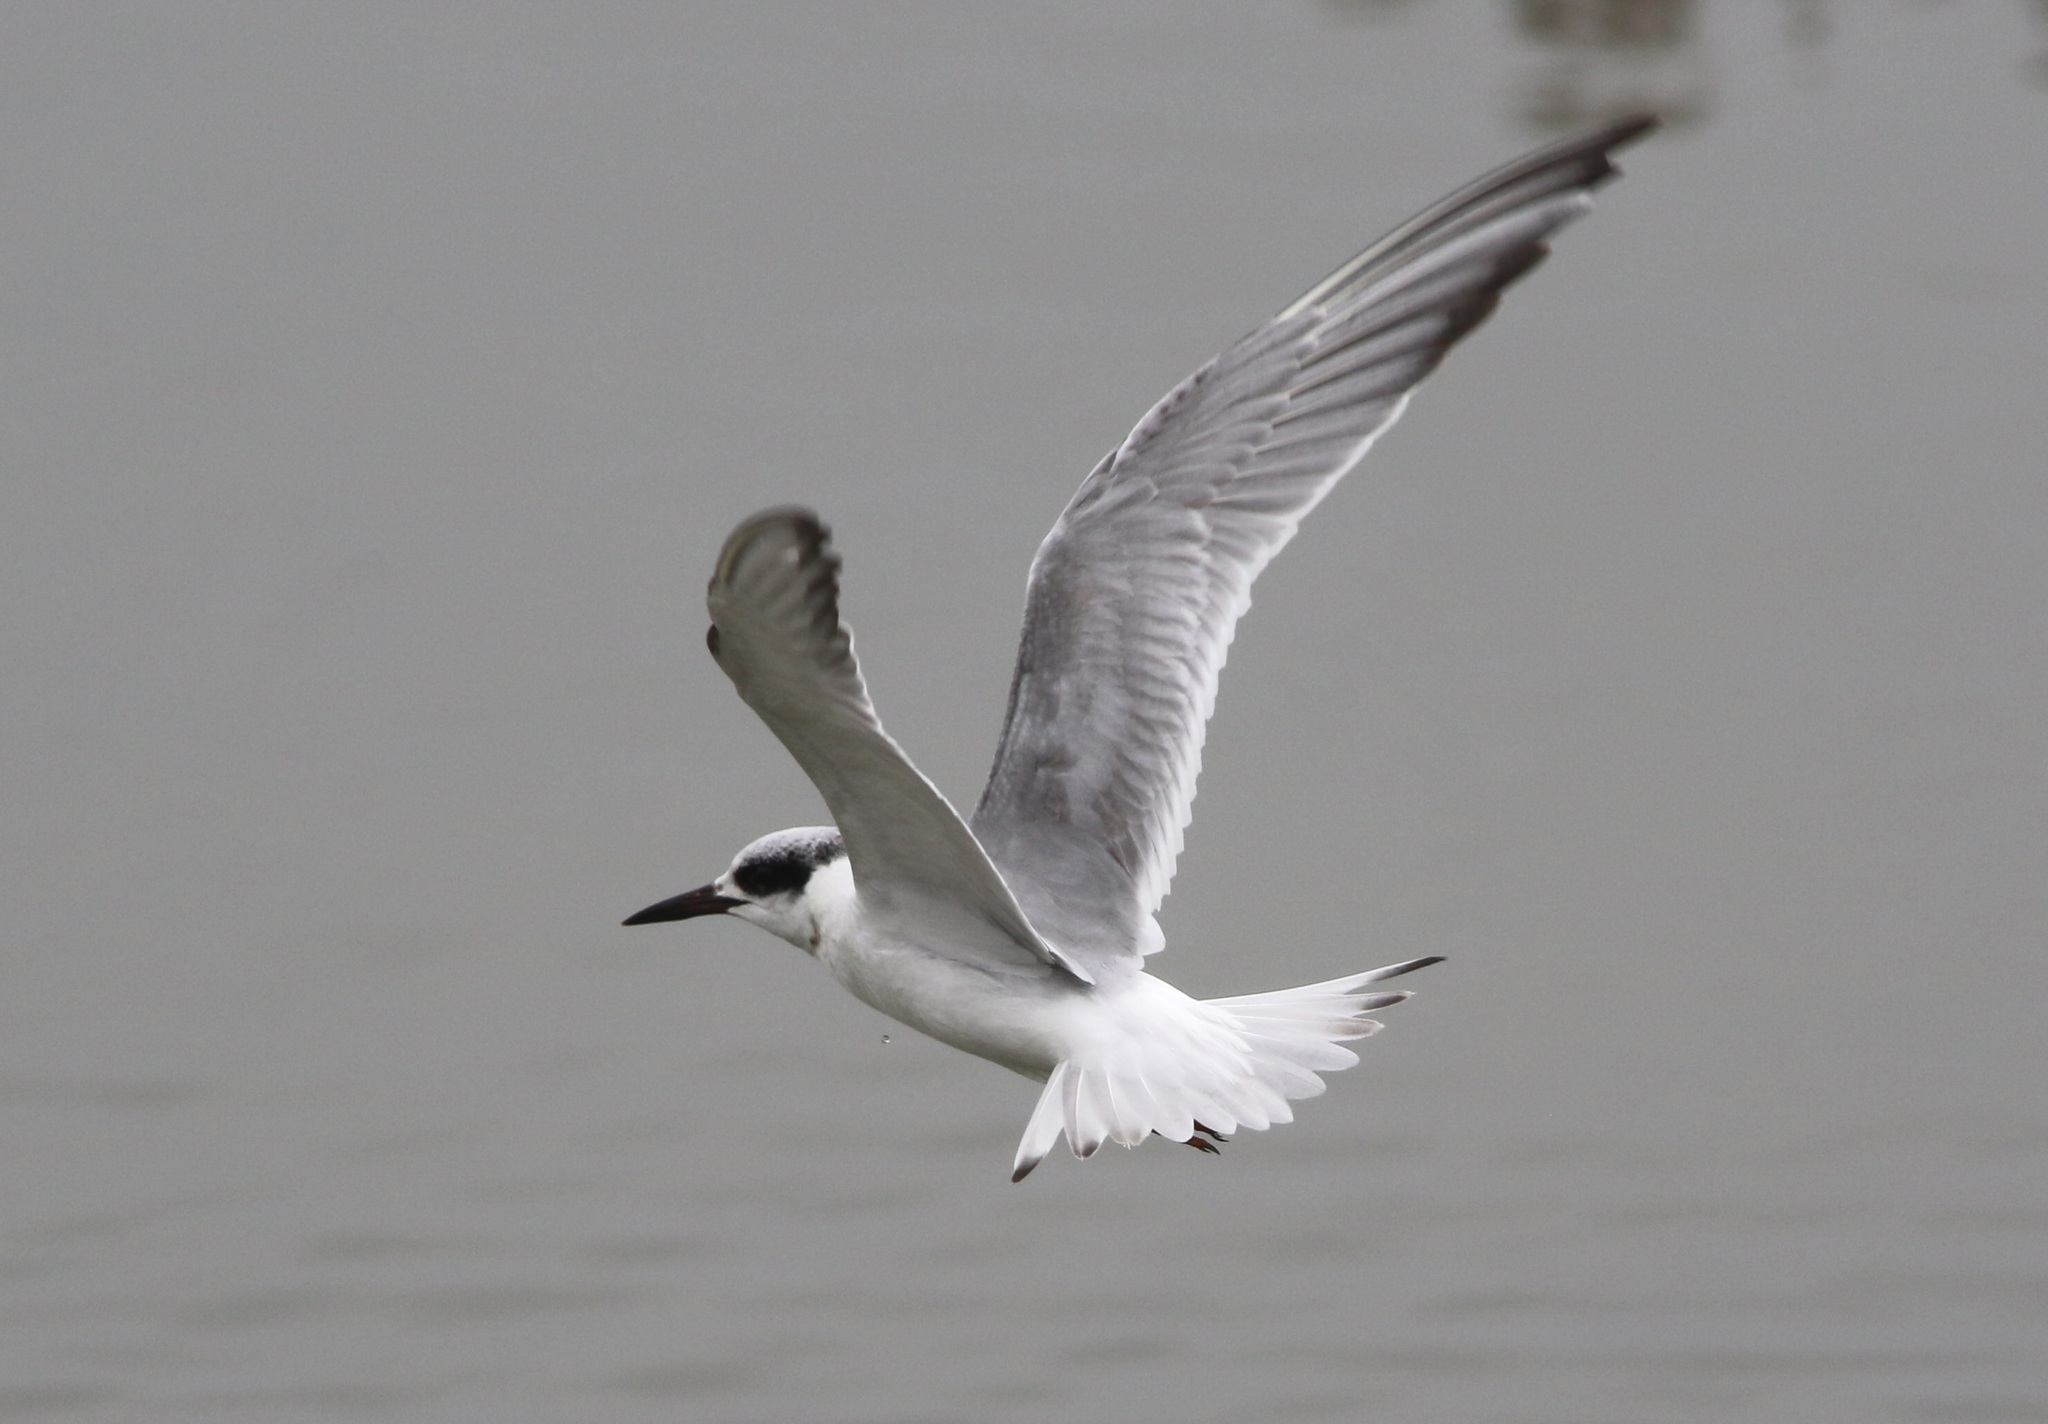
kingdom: Animalia
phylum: Chordata
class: Aves
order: Charadriiformes
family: Laridae
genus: Sterna
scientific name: Sterna forsteri
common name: Forster's tern
